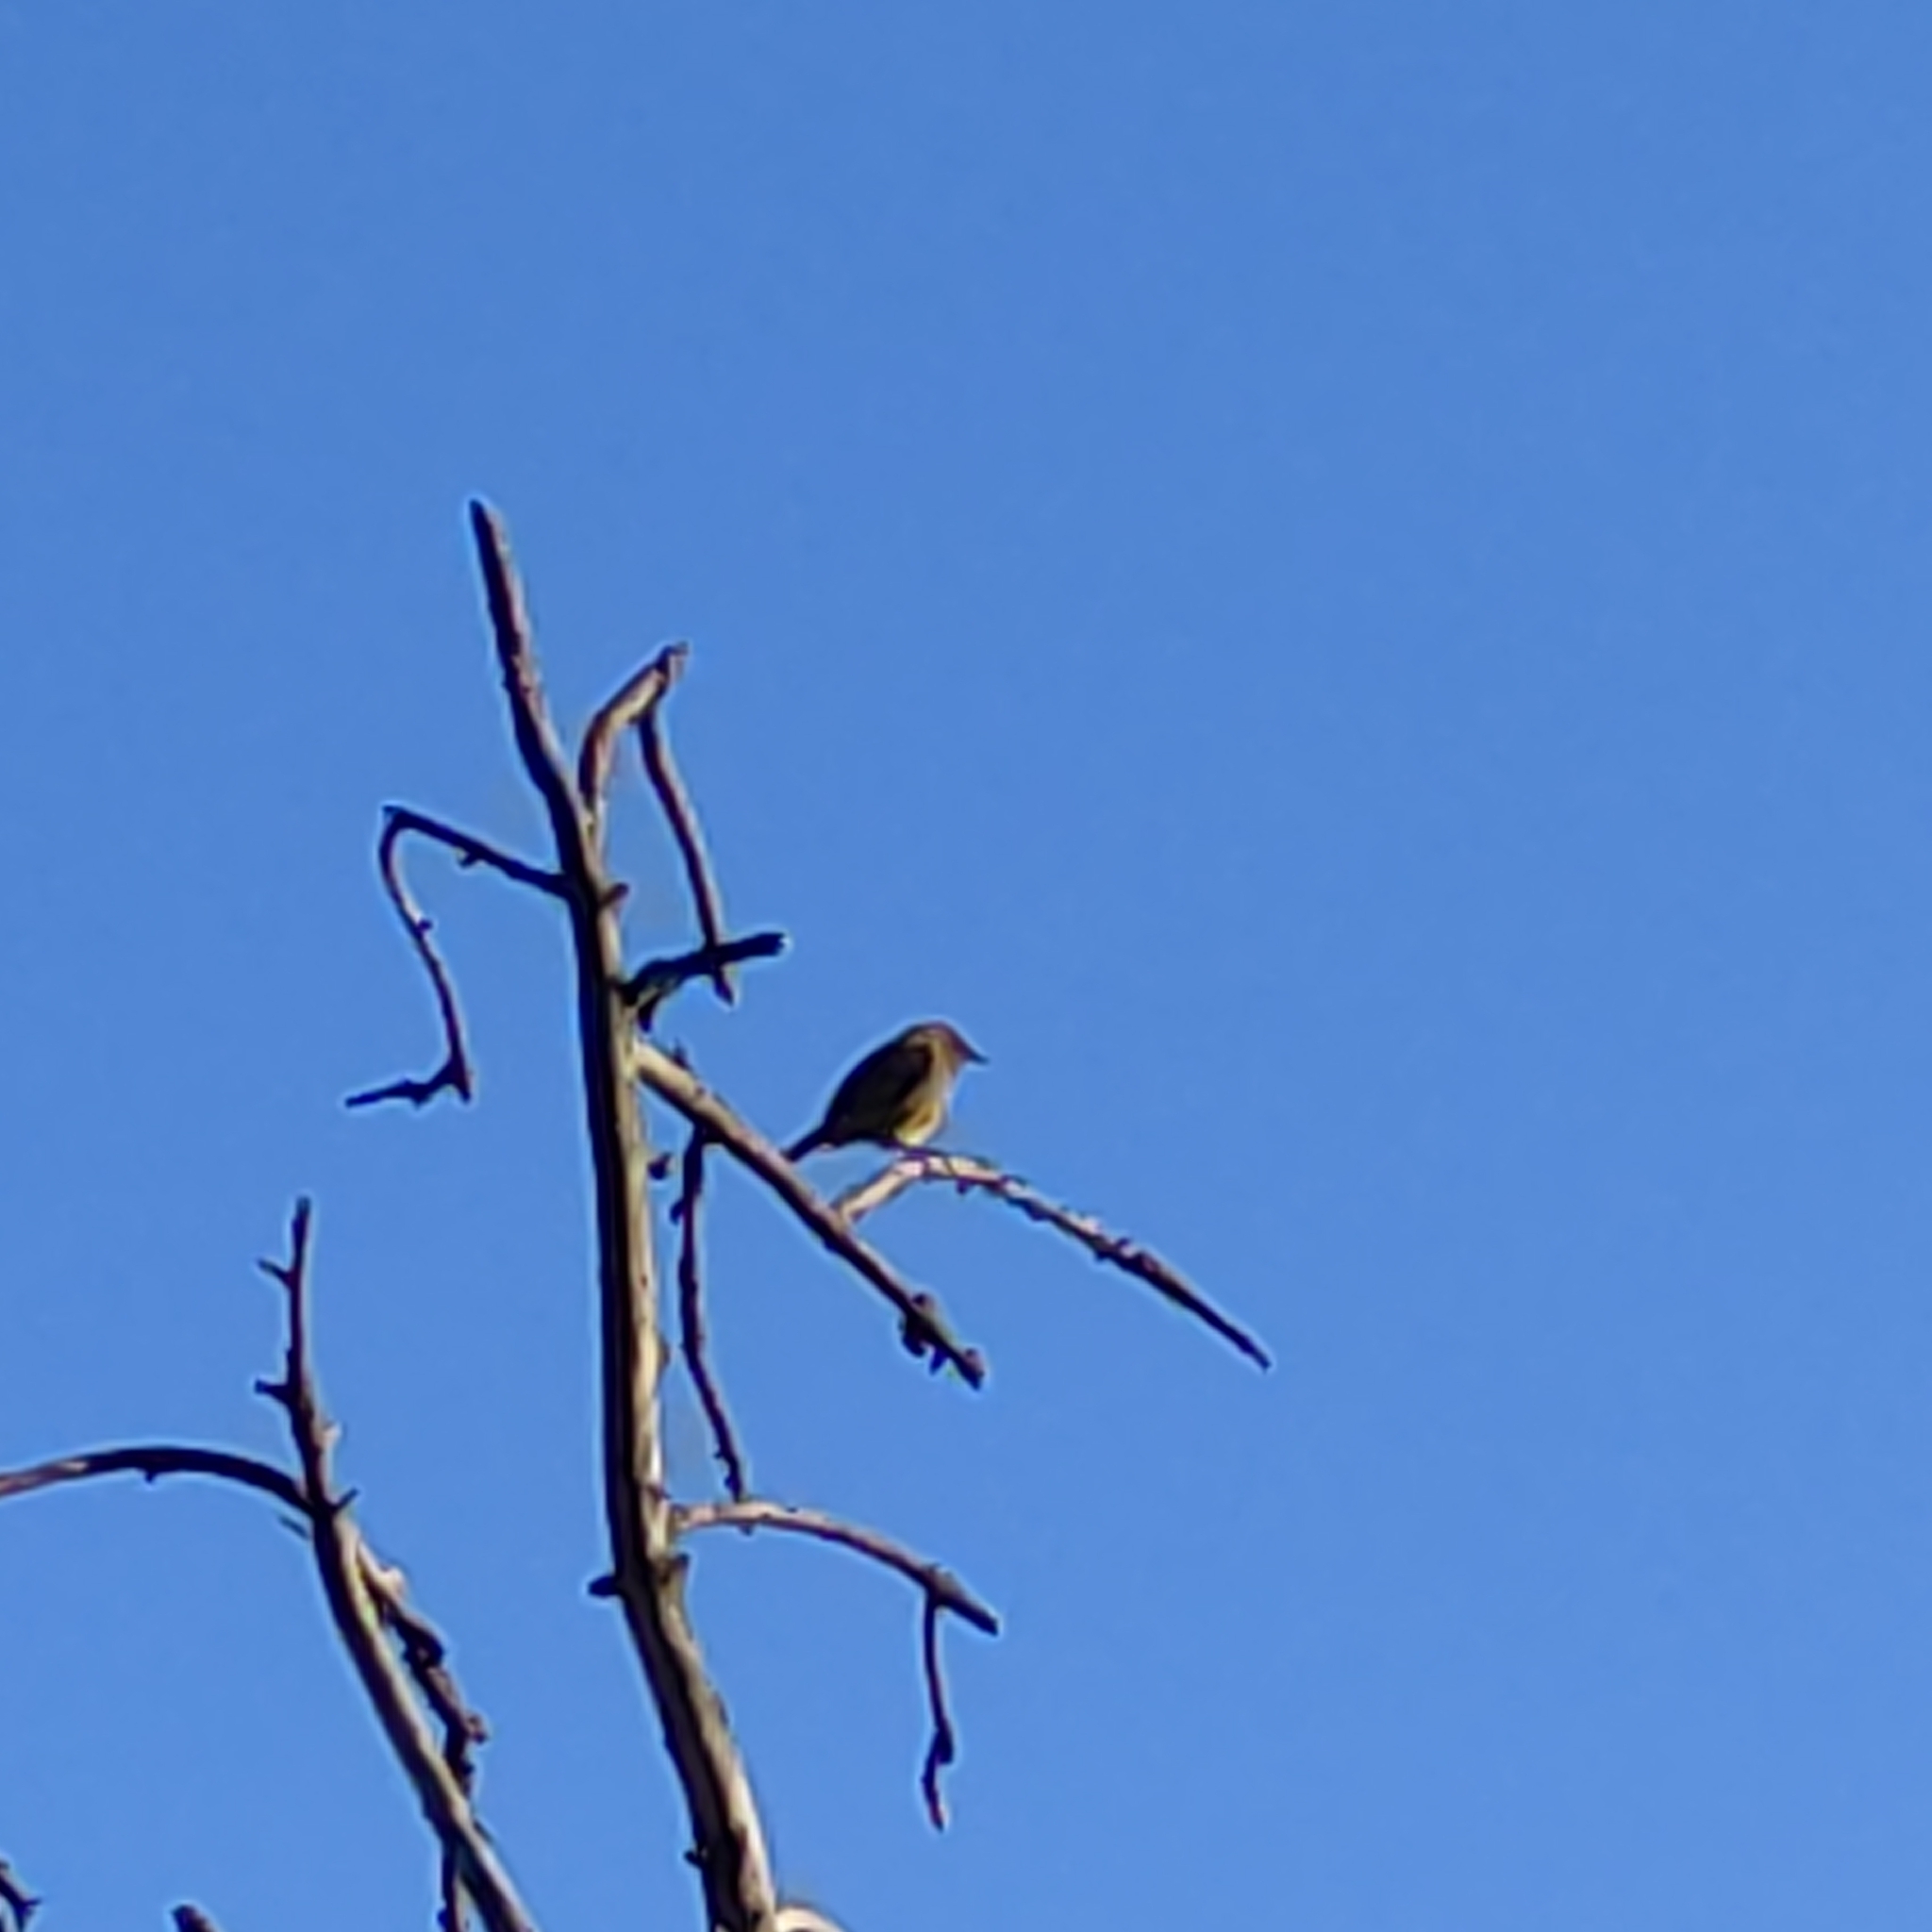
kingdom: Animalia
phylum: Chordata
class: Aves
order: Passeriformes
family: Zosteropidae
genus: Zosterops
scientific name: Zosterops lateralis
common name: Silvereye
